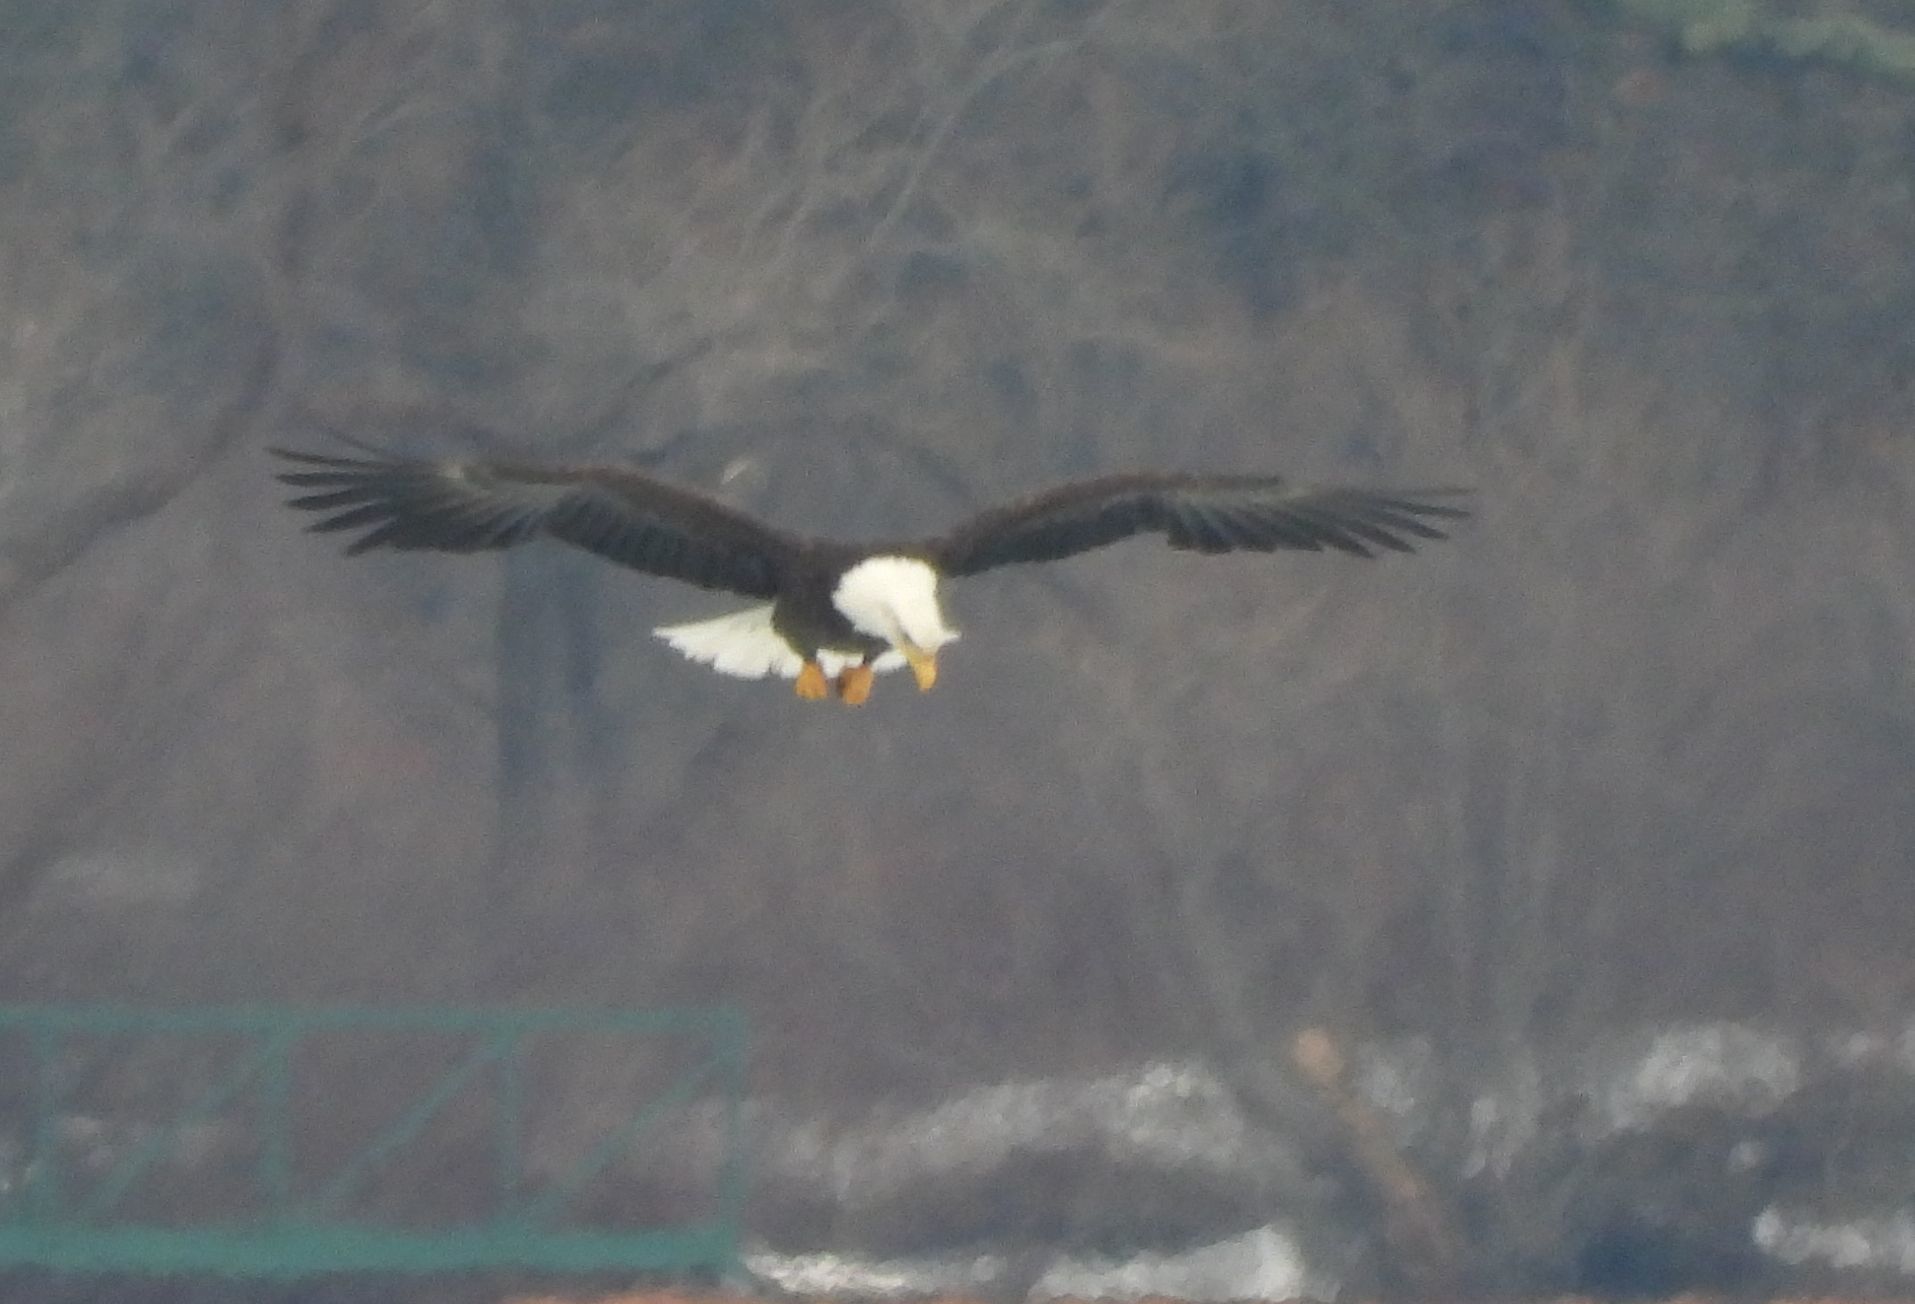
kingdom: Animalia
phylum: Chordata
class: Aves
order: Accipitriformes
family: Accipitridae
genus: Haliaeetus
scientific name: Haliaeetus leucocephalus
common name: Bald eagle
